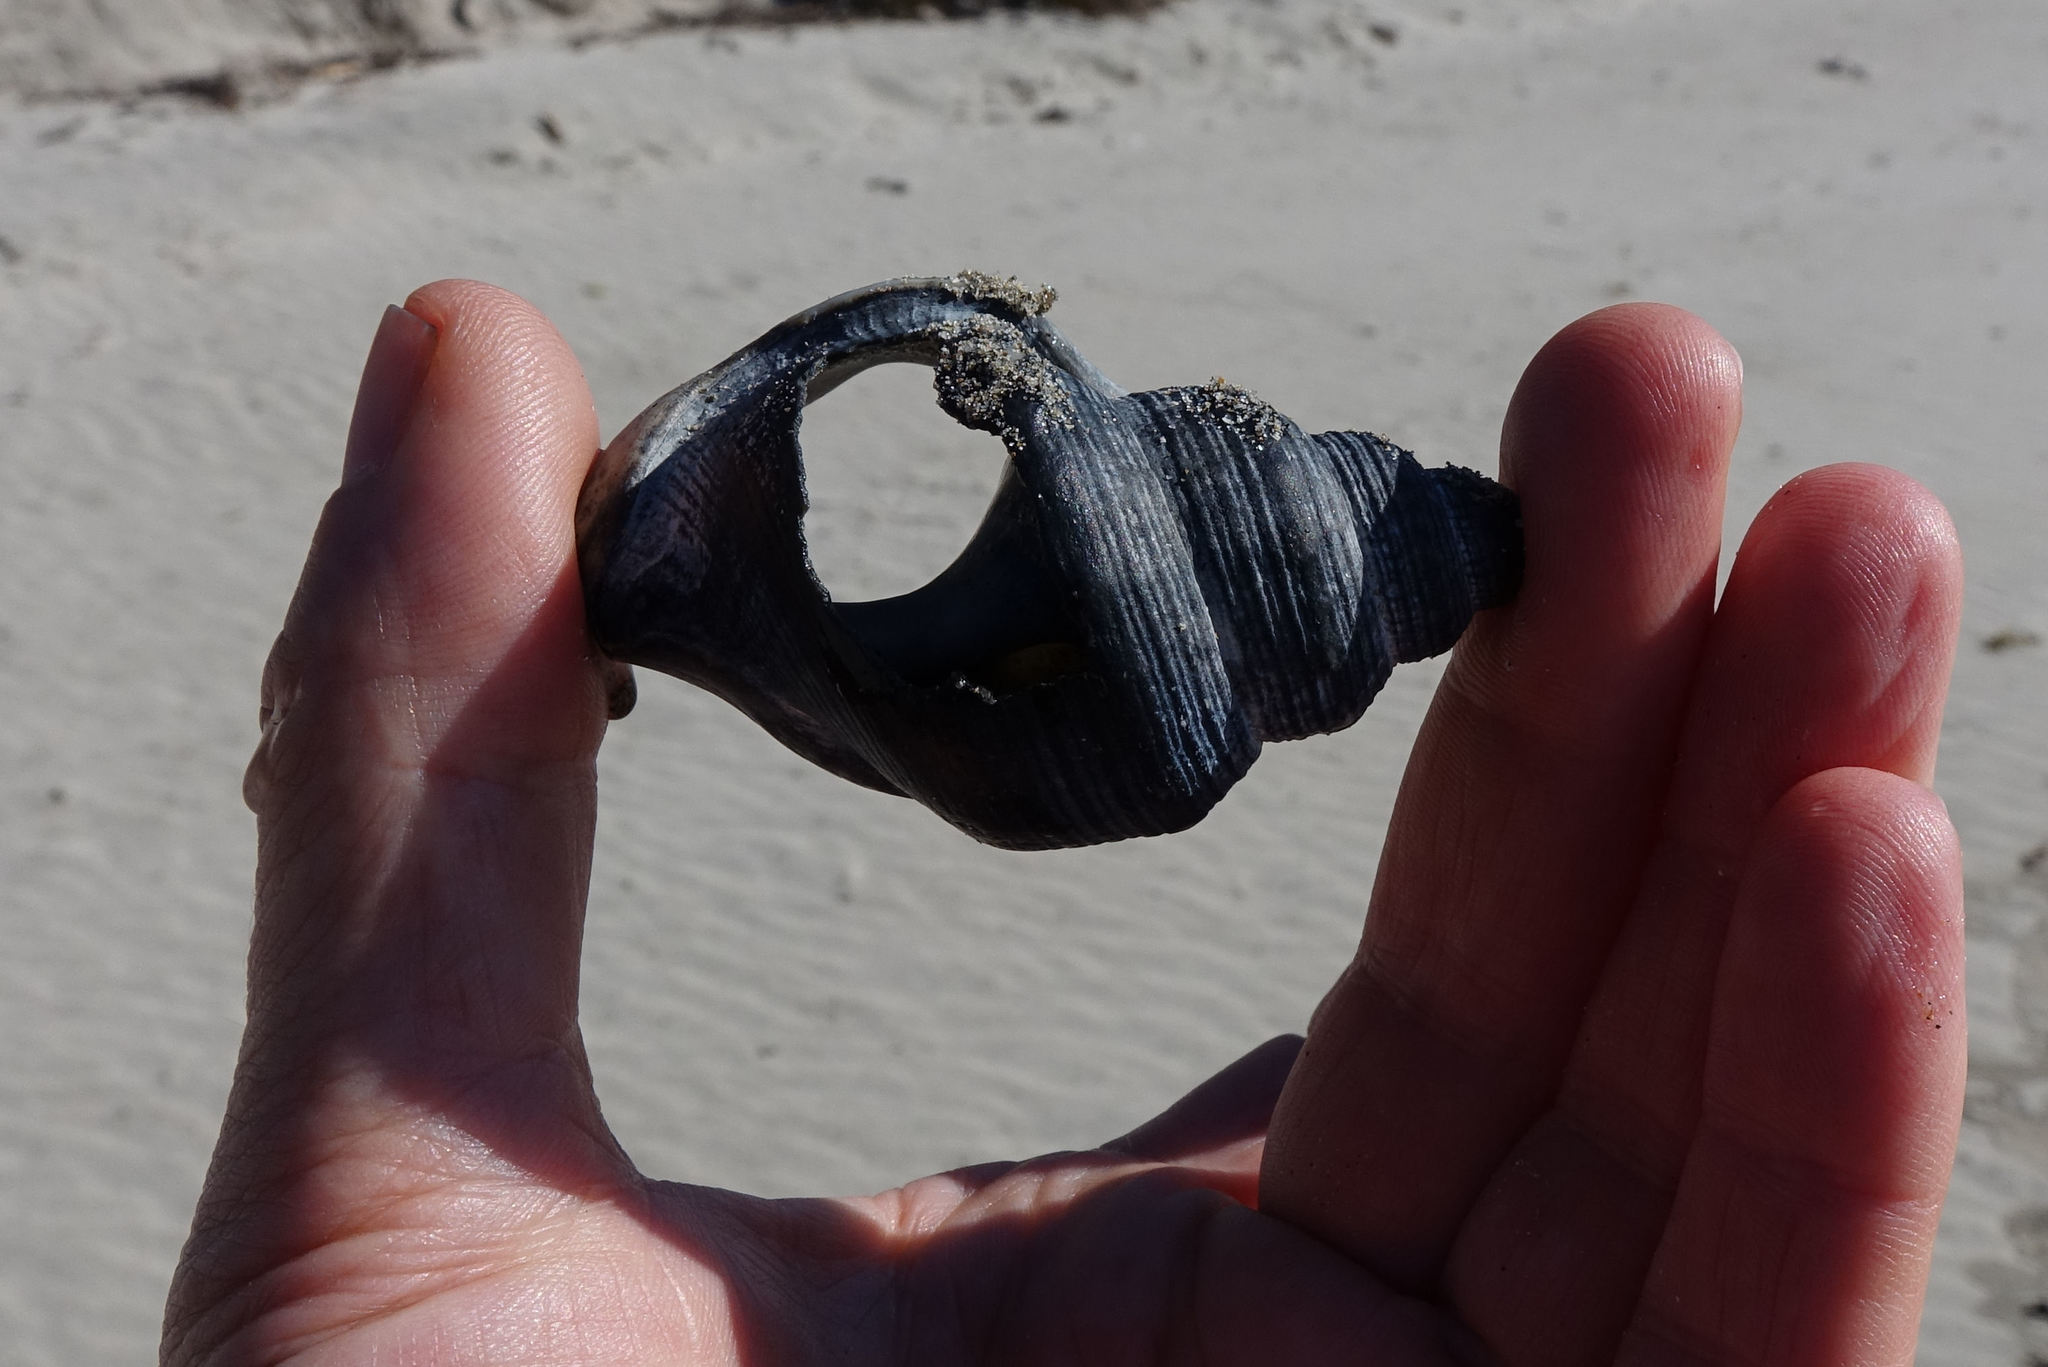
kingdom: Animalia
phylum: Mollusca
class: Gastropoda
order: Littorinimorpha
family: Struthiolariidae
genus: Struthiolaria
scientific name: Struthiolaria papulosa
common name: Large ostrich foot
